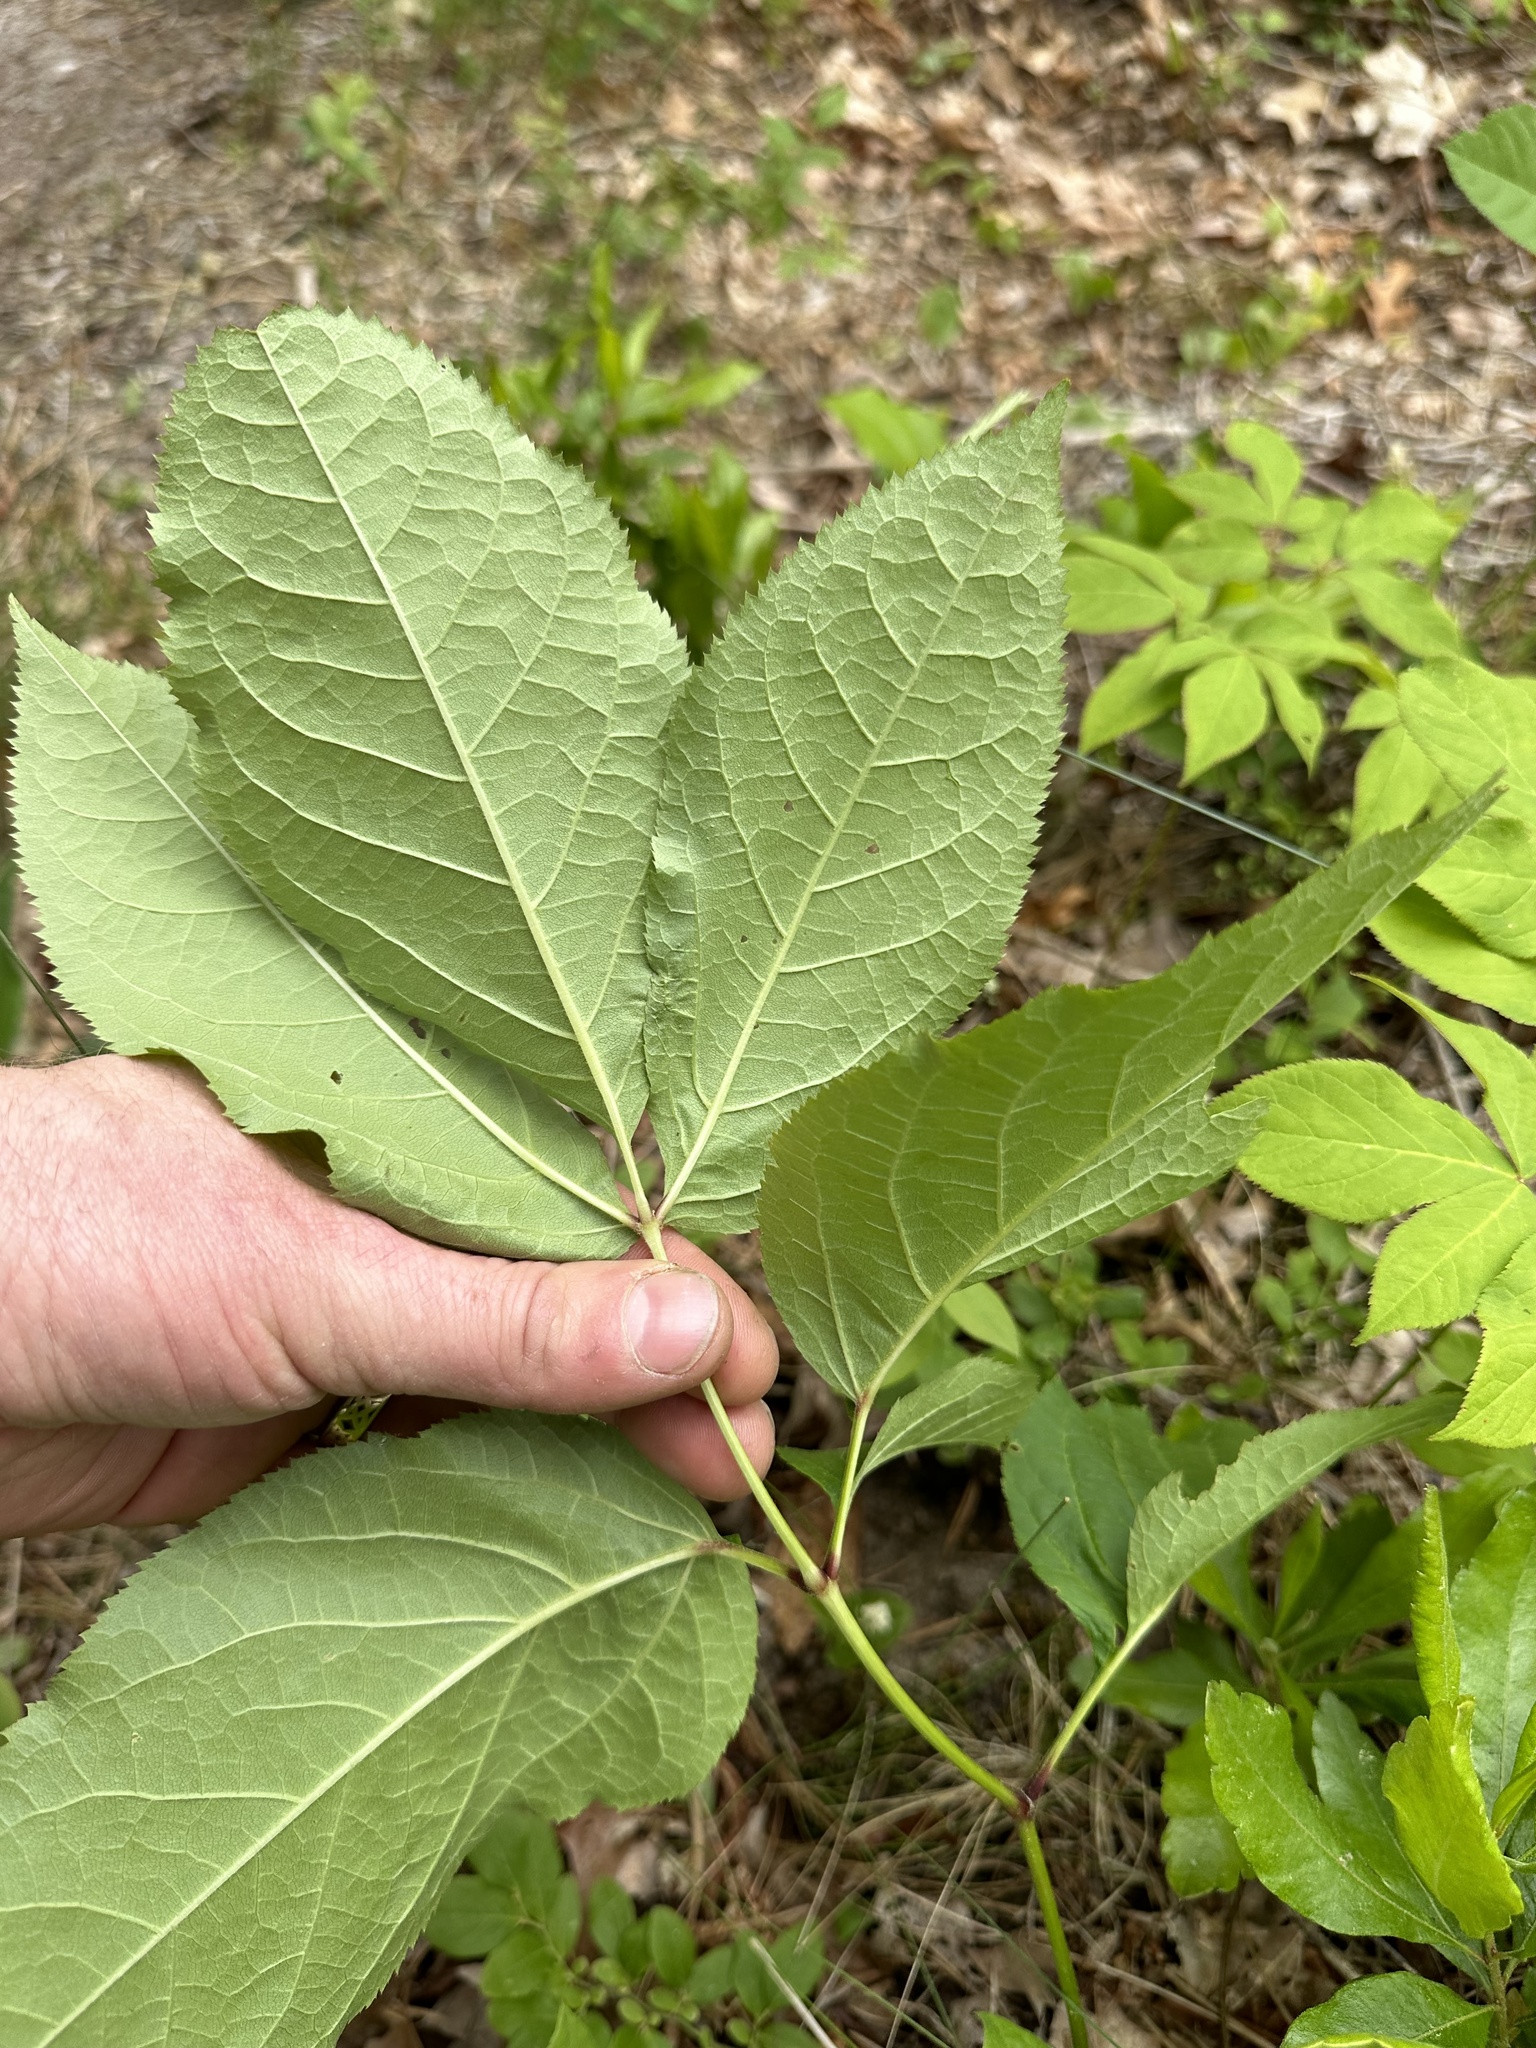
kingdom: Plantae
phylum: Tracheophyta
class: Magnoliopsida
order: Apiales
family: Araliaceae
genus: Aralia
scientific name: Aralia nudicaulis
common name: Wild sarsaparilla
